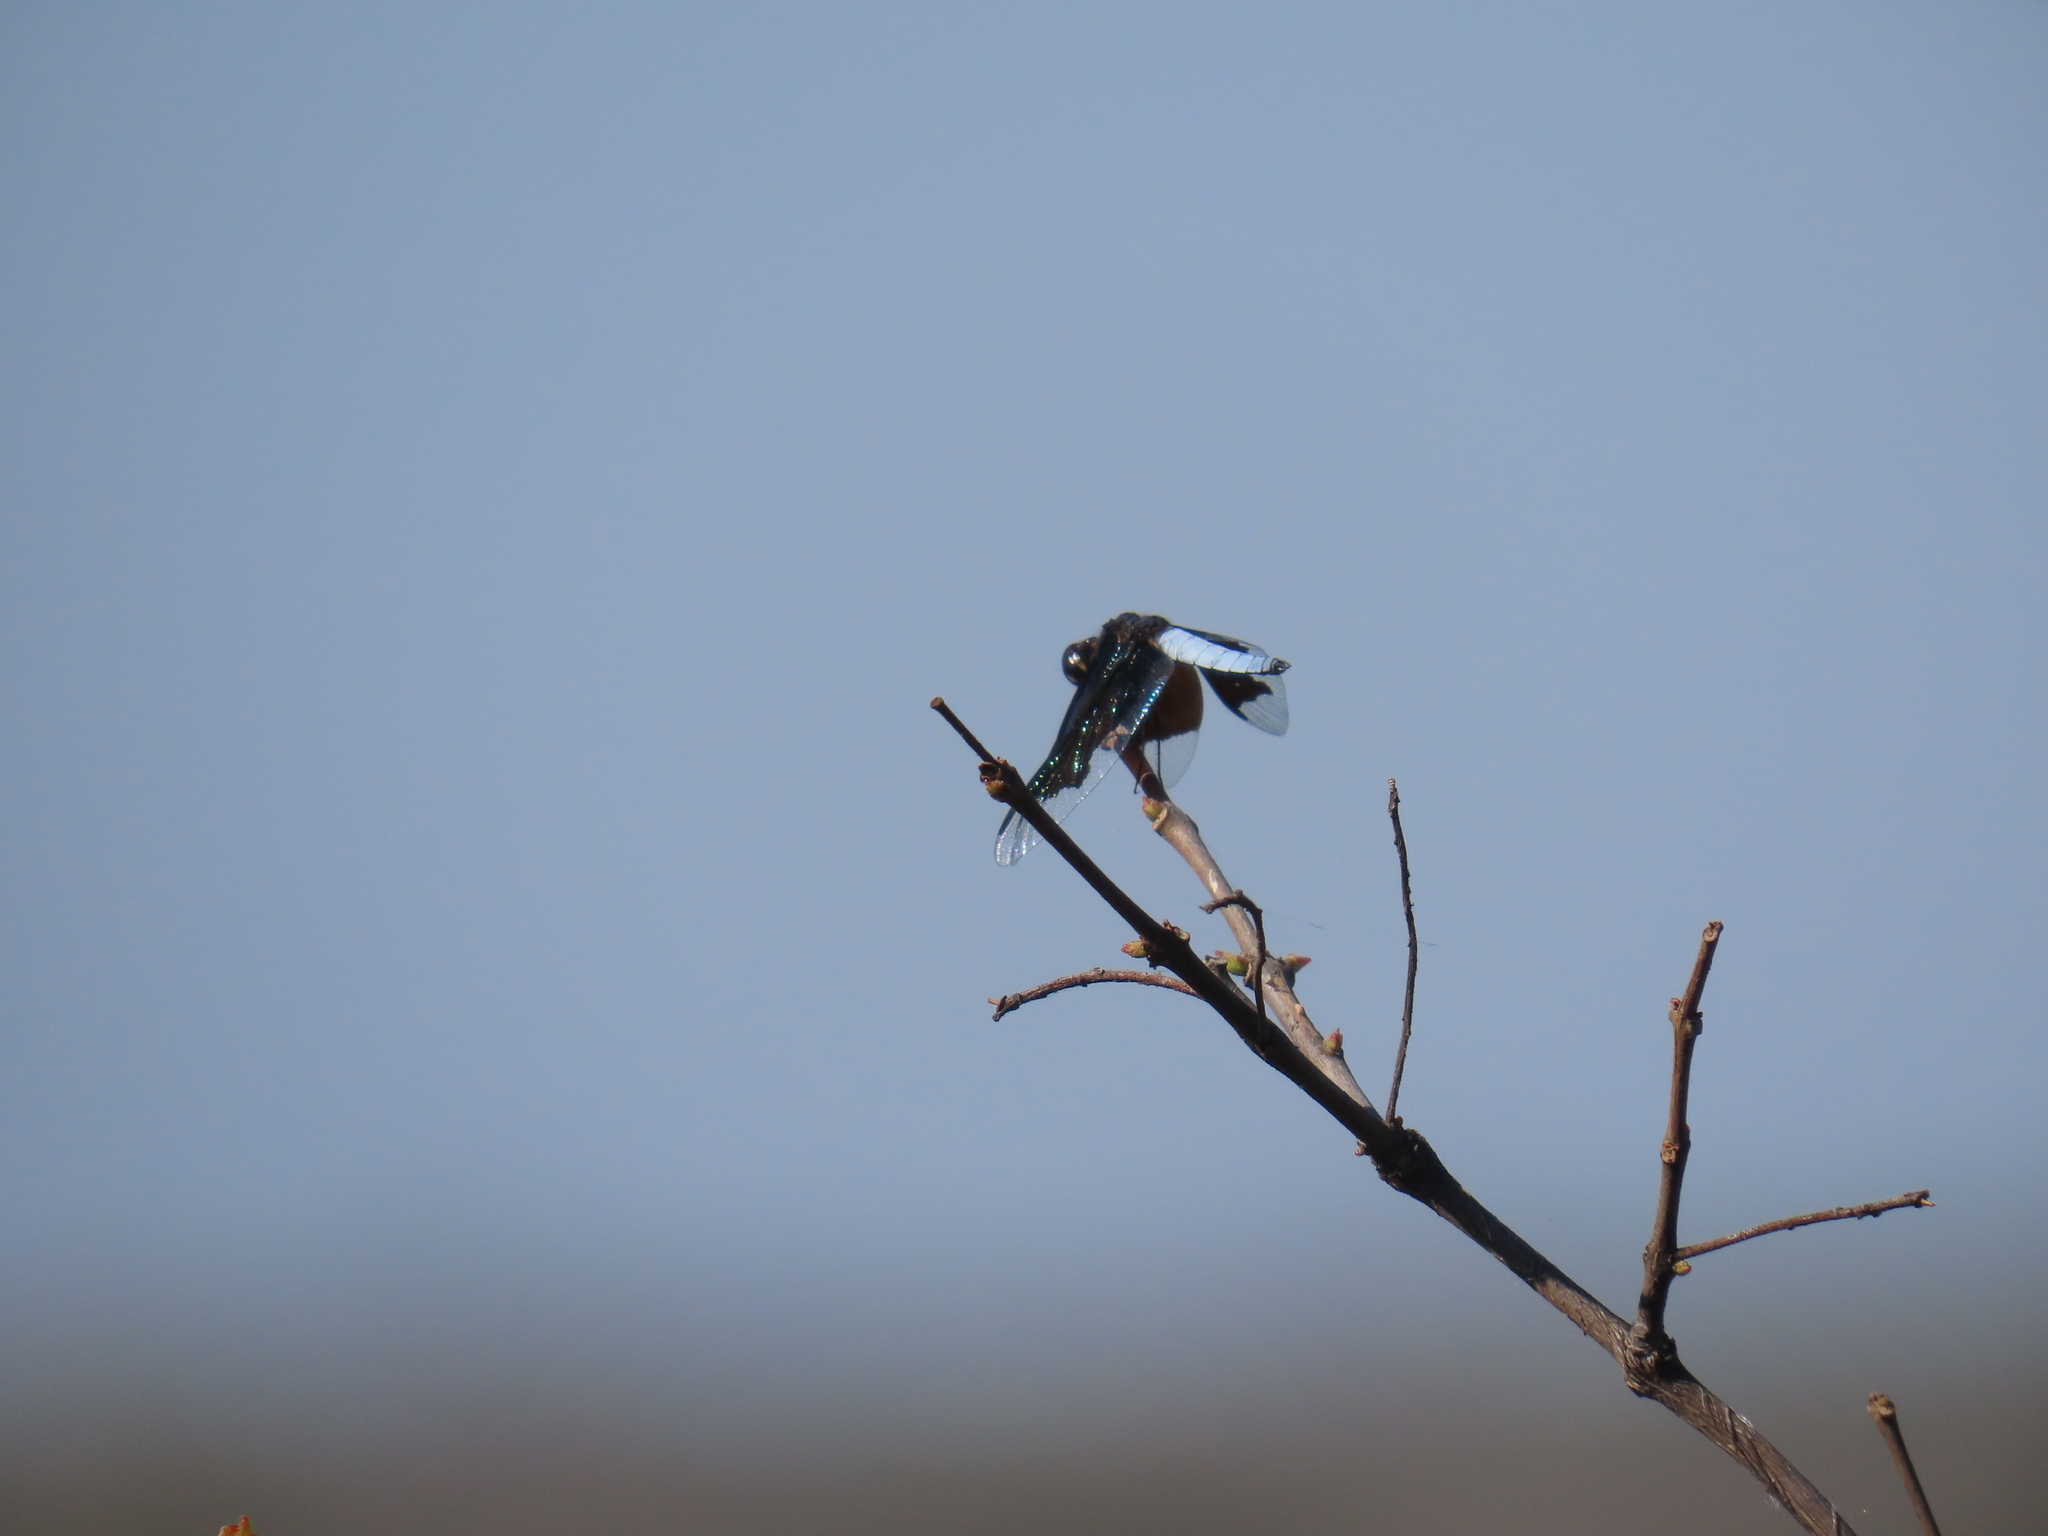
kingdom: Animalia
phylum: Arthropoda
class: Insecta
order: Odonata
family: Libellulidae
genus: Palpopleura
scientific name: Palpopleura lucia
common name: Lucia widow
